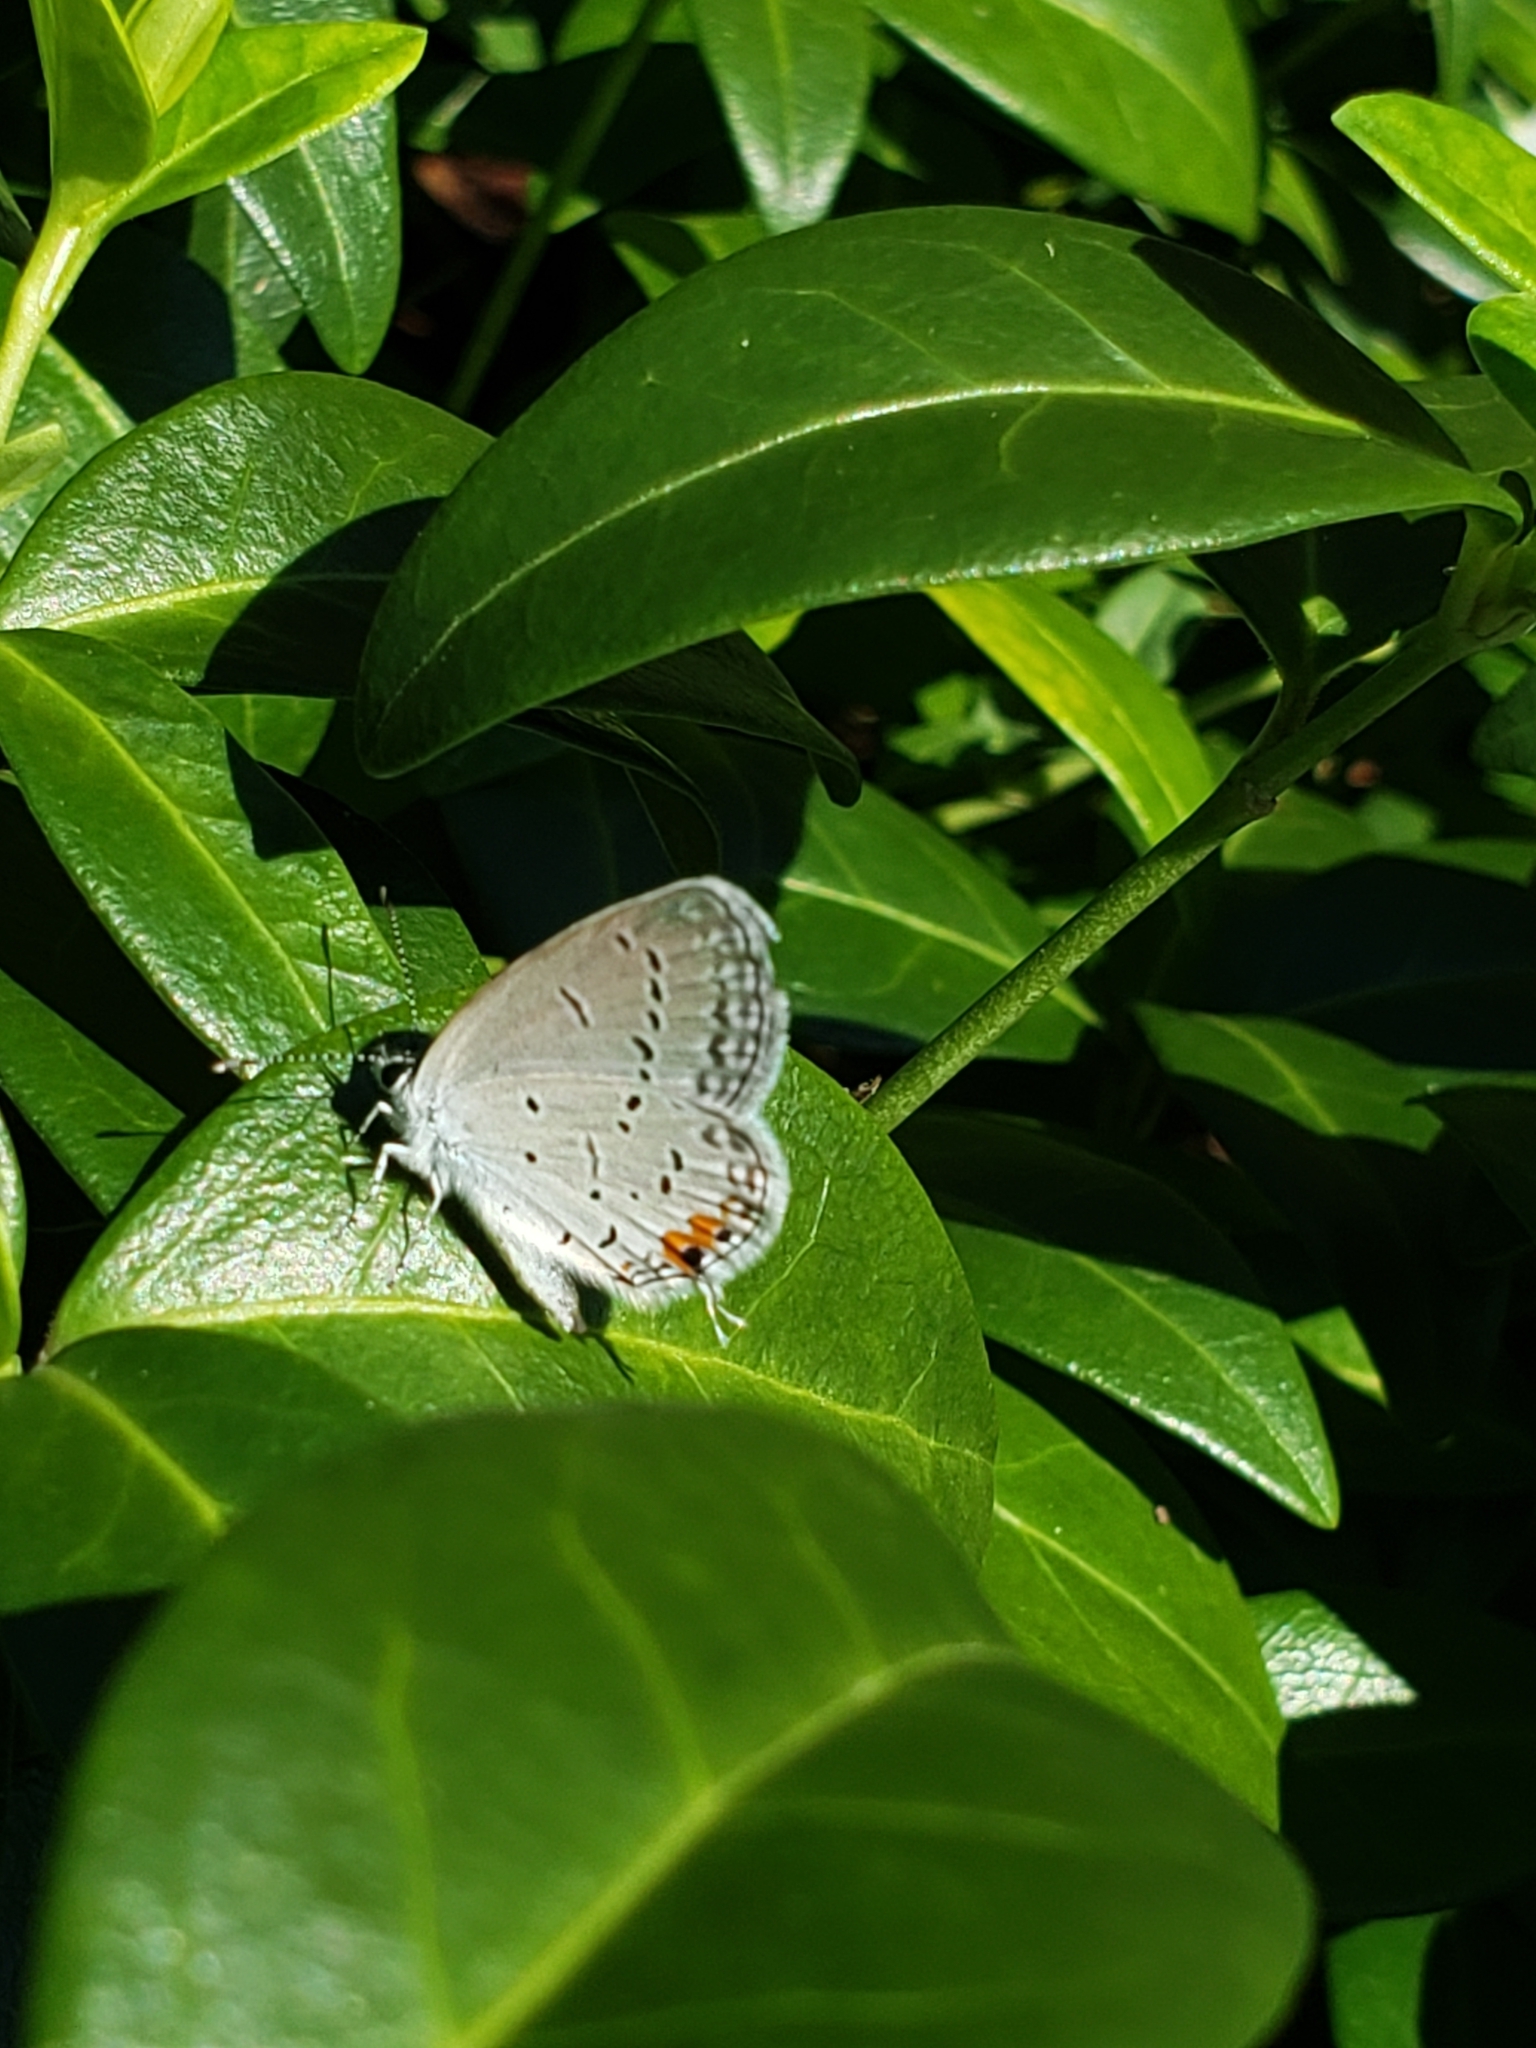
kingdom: Animalia
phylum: Arthropoda
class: Insecta
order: Lepidoptera
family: Lycaenidae
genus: Elkalyce
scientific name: Elkalyce comyntas
